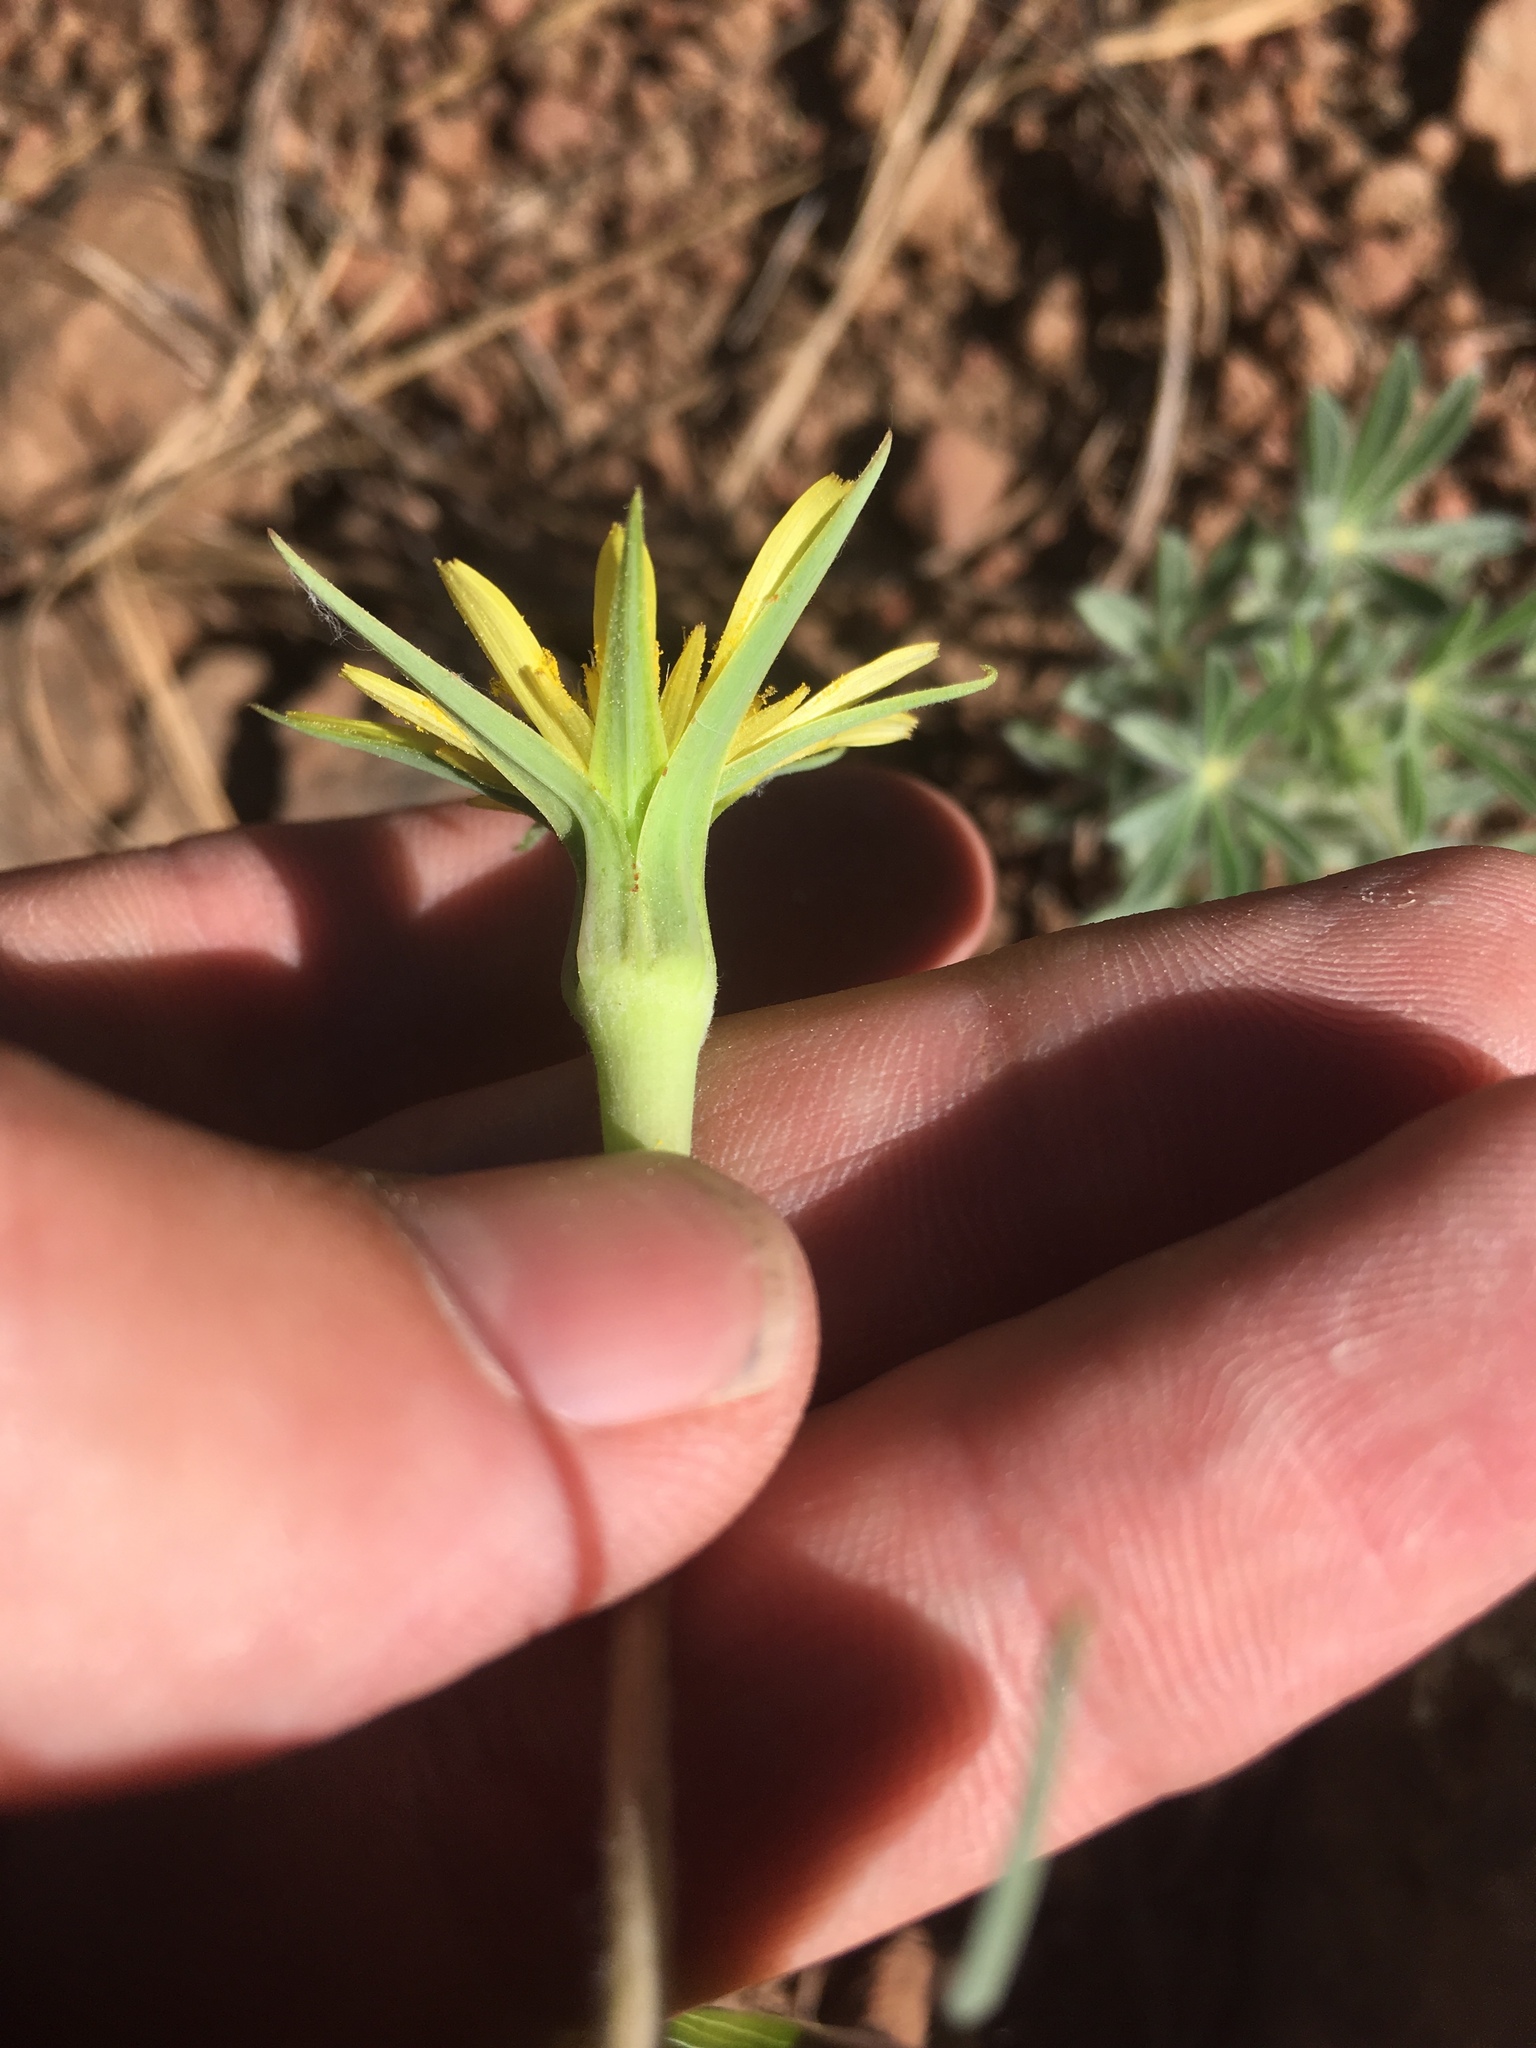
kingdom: Plantae
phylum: Tracheophyta
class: Magnoliopsida
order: Asterales
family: Asteraceae
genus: Tragopogon
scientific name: Tragopogon dubius
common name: Yellow salsify
